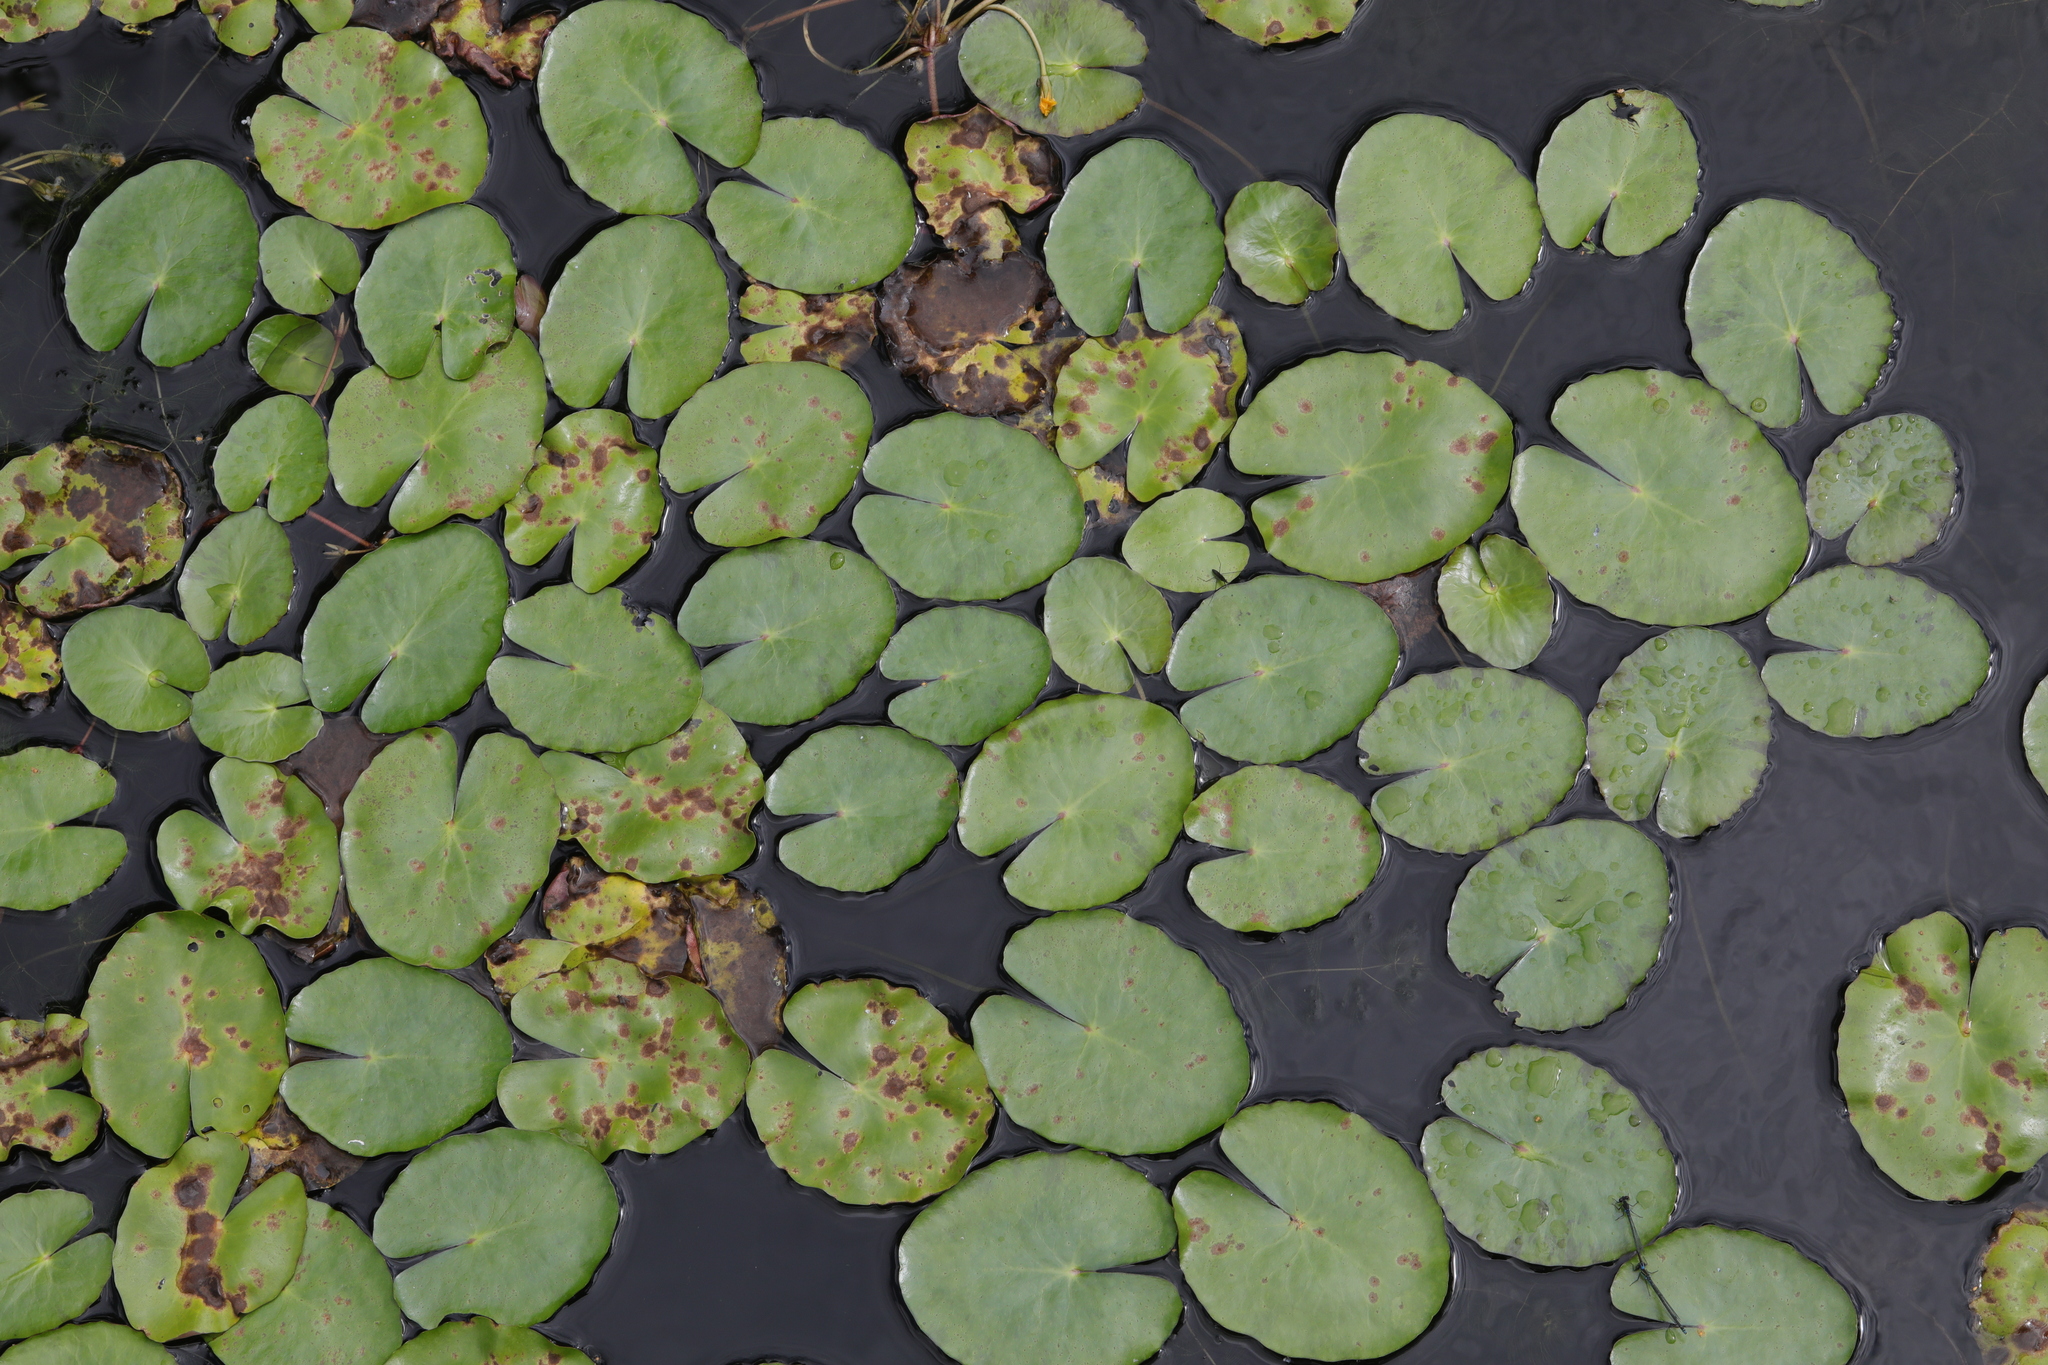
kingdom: Plantae
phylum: Tracheophyta
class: Magnoliopsida
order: Asterales
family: Menyanthaceae
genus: Nymphoides
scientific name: Nymphoides peltata
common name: Fringed water-lily
